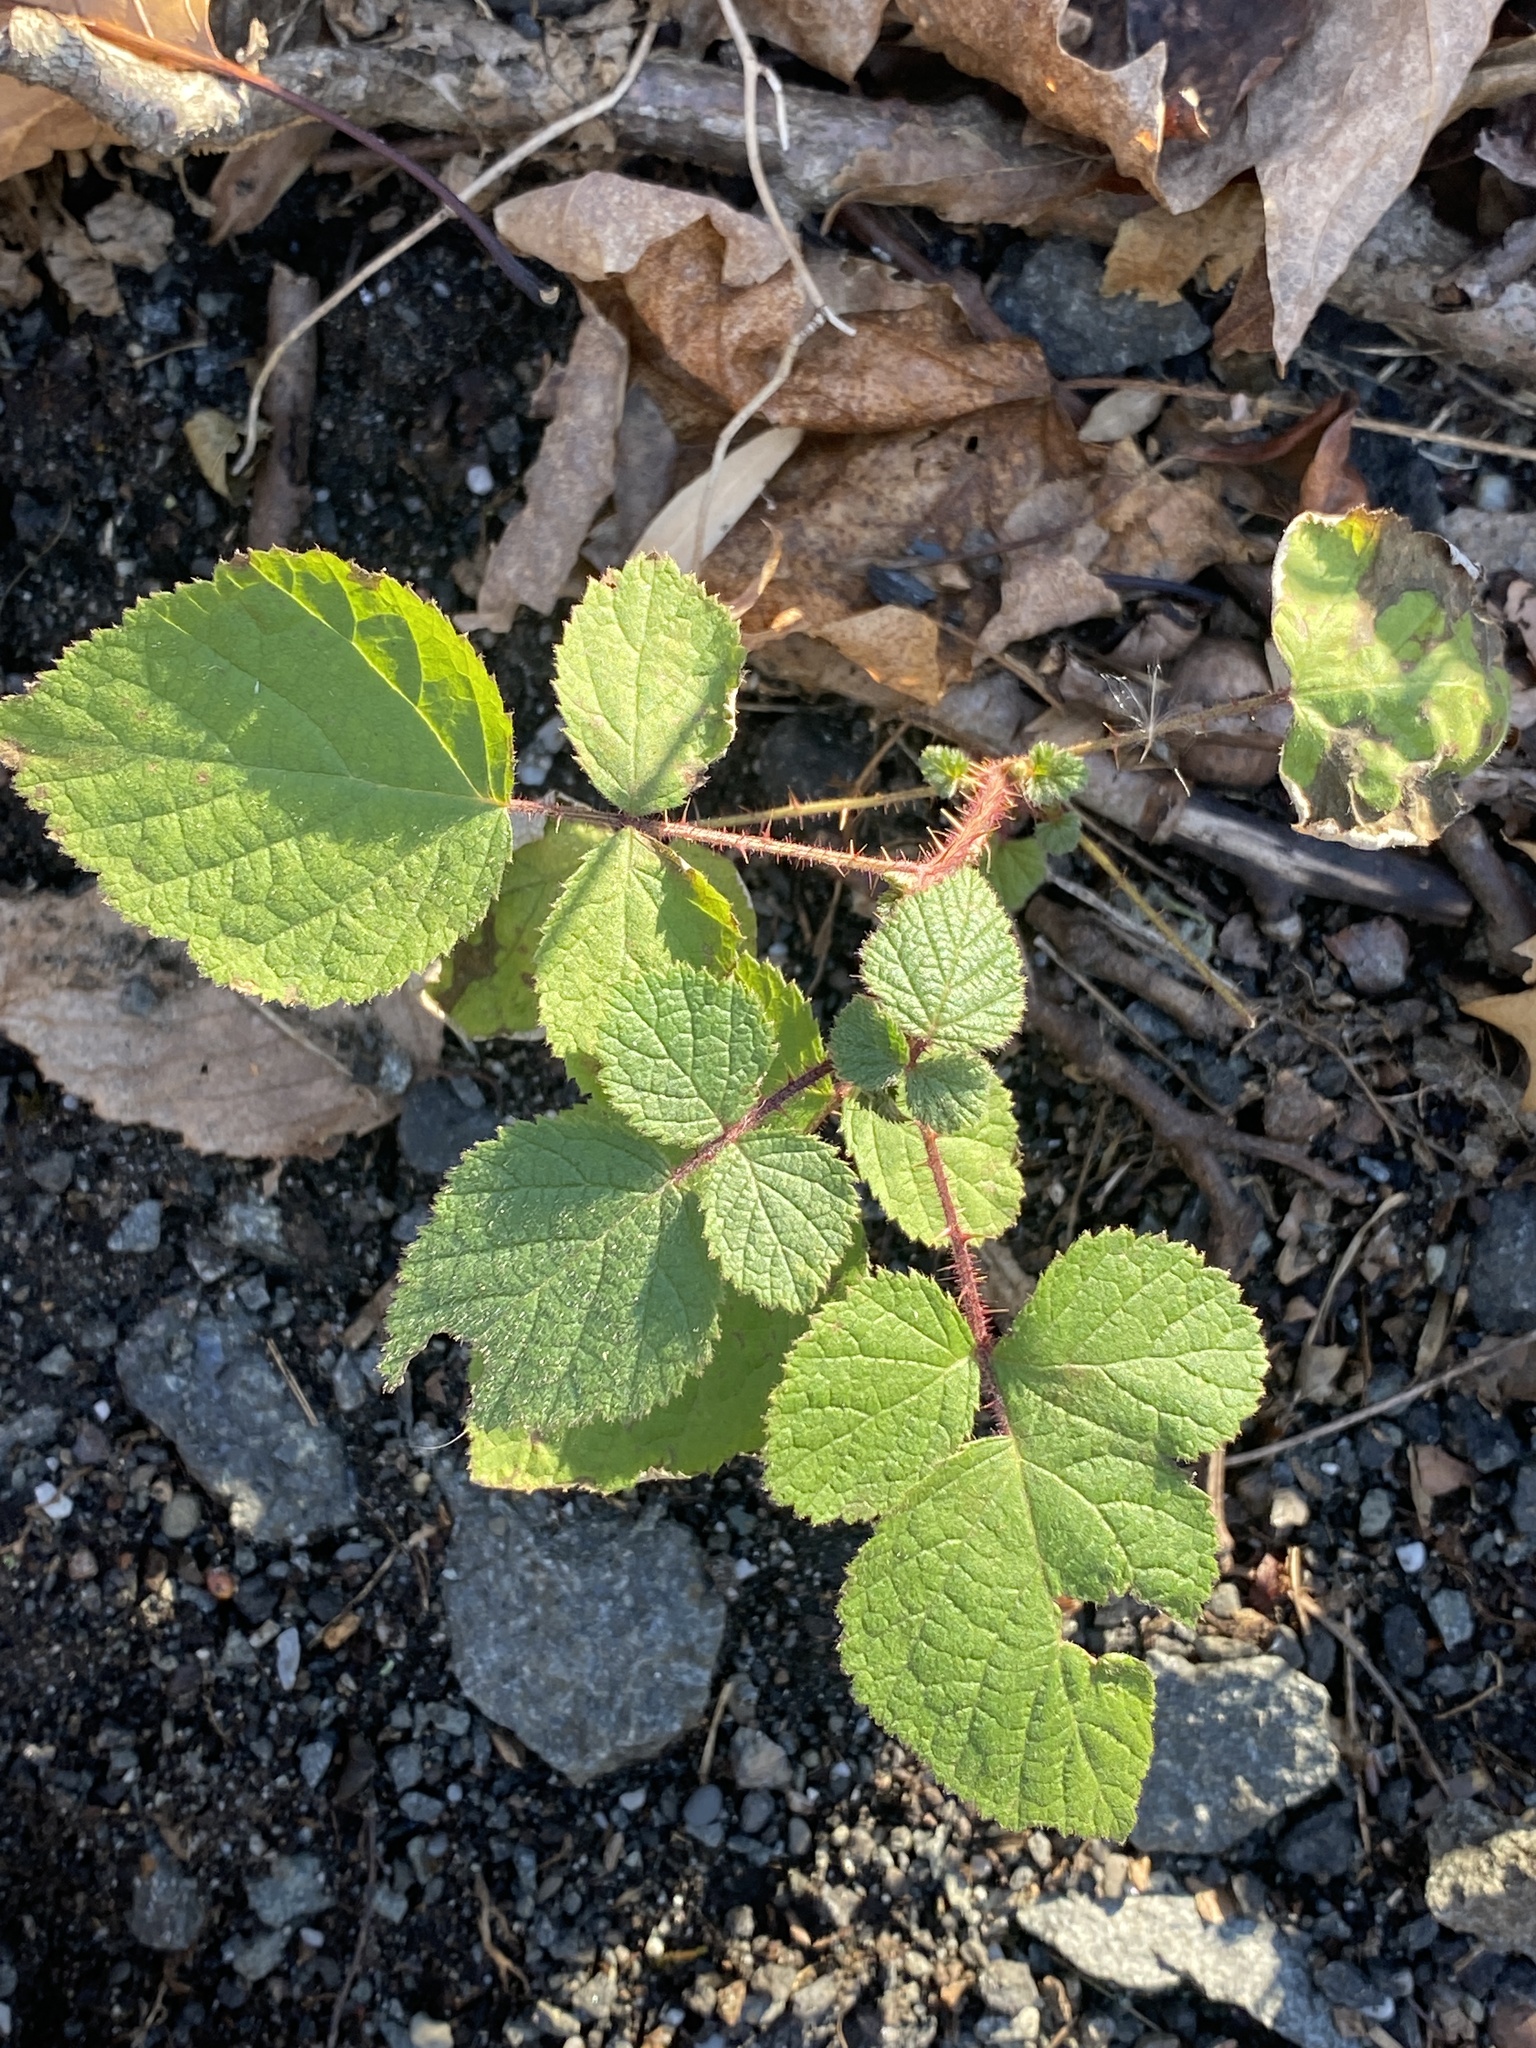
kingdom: Plantae
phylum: Tracheophyta
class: Magnoliopsida
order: Rosales
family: Rosaceae
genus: Rubus
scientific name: Rubus phoenicolasius
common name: Japanese wineberry
